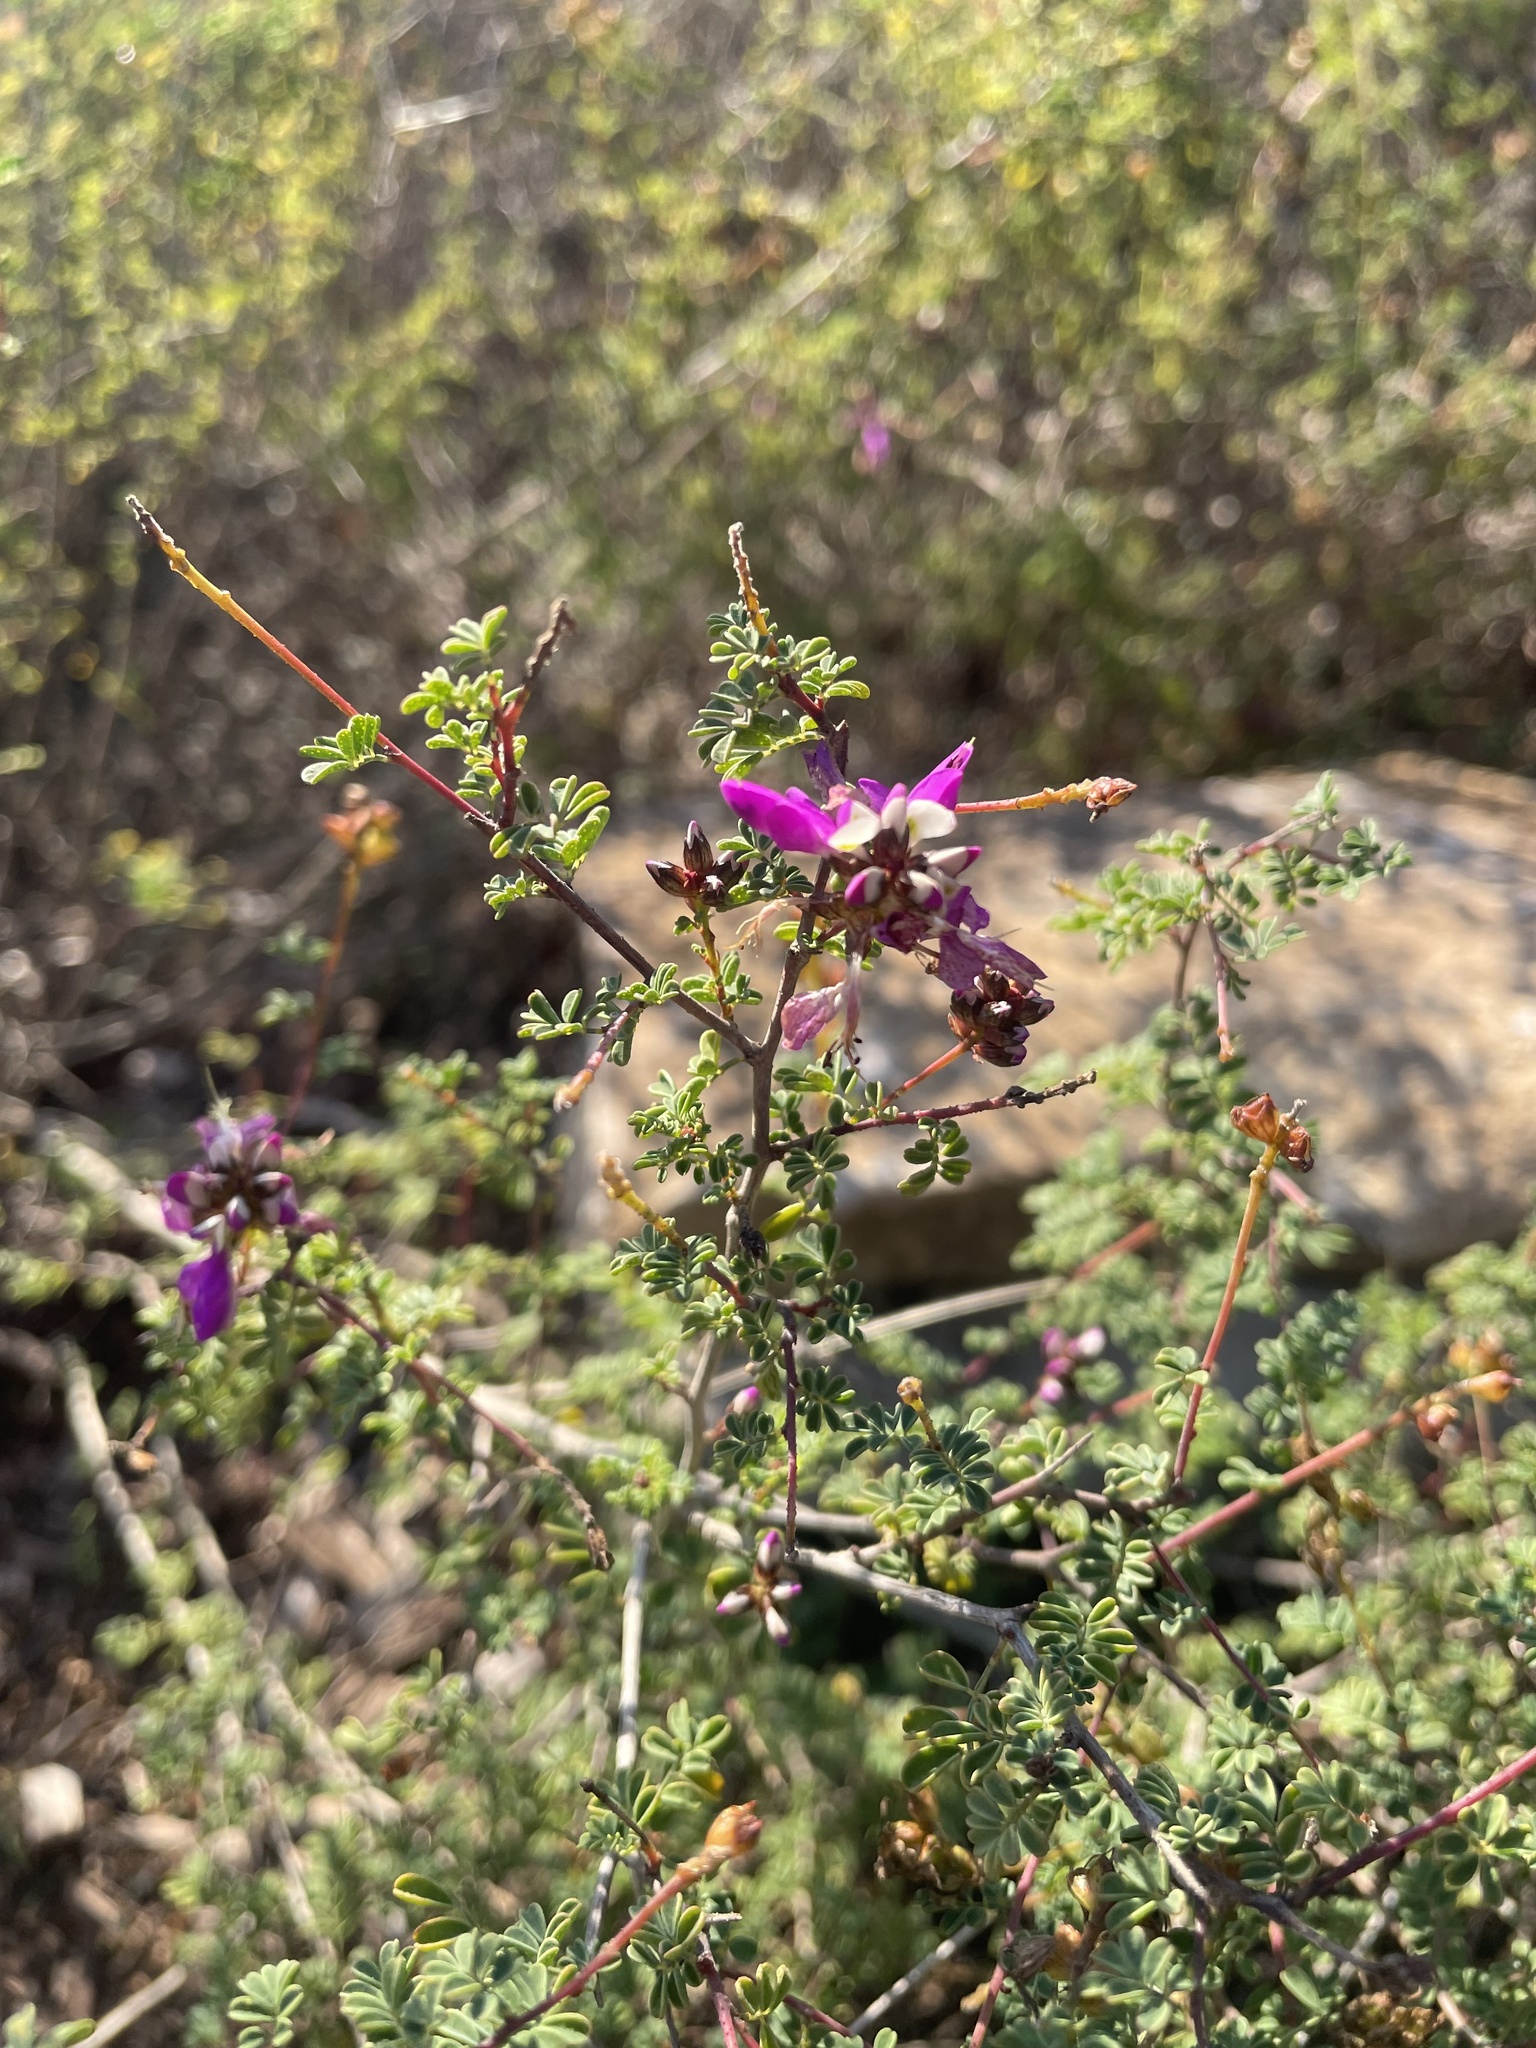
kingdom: Plantae
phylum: Tracheophyta
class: Magnoliopsida
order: Fabales
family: Fabaceae
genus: Dalea
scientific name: Dalea frutescens
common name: Black dalea
